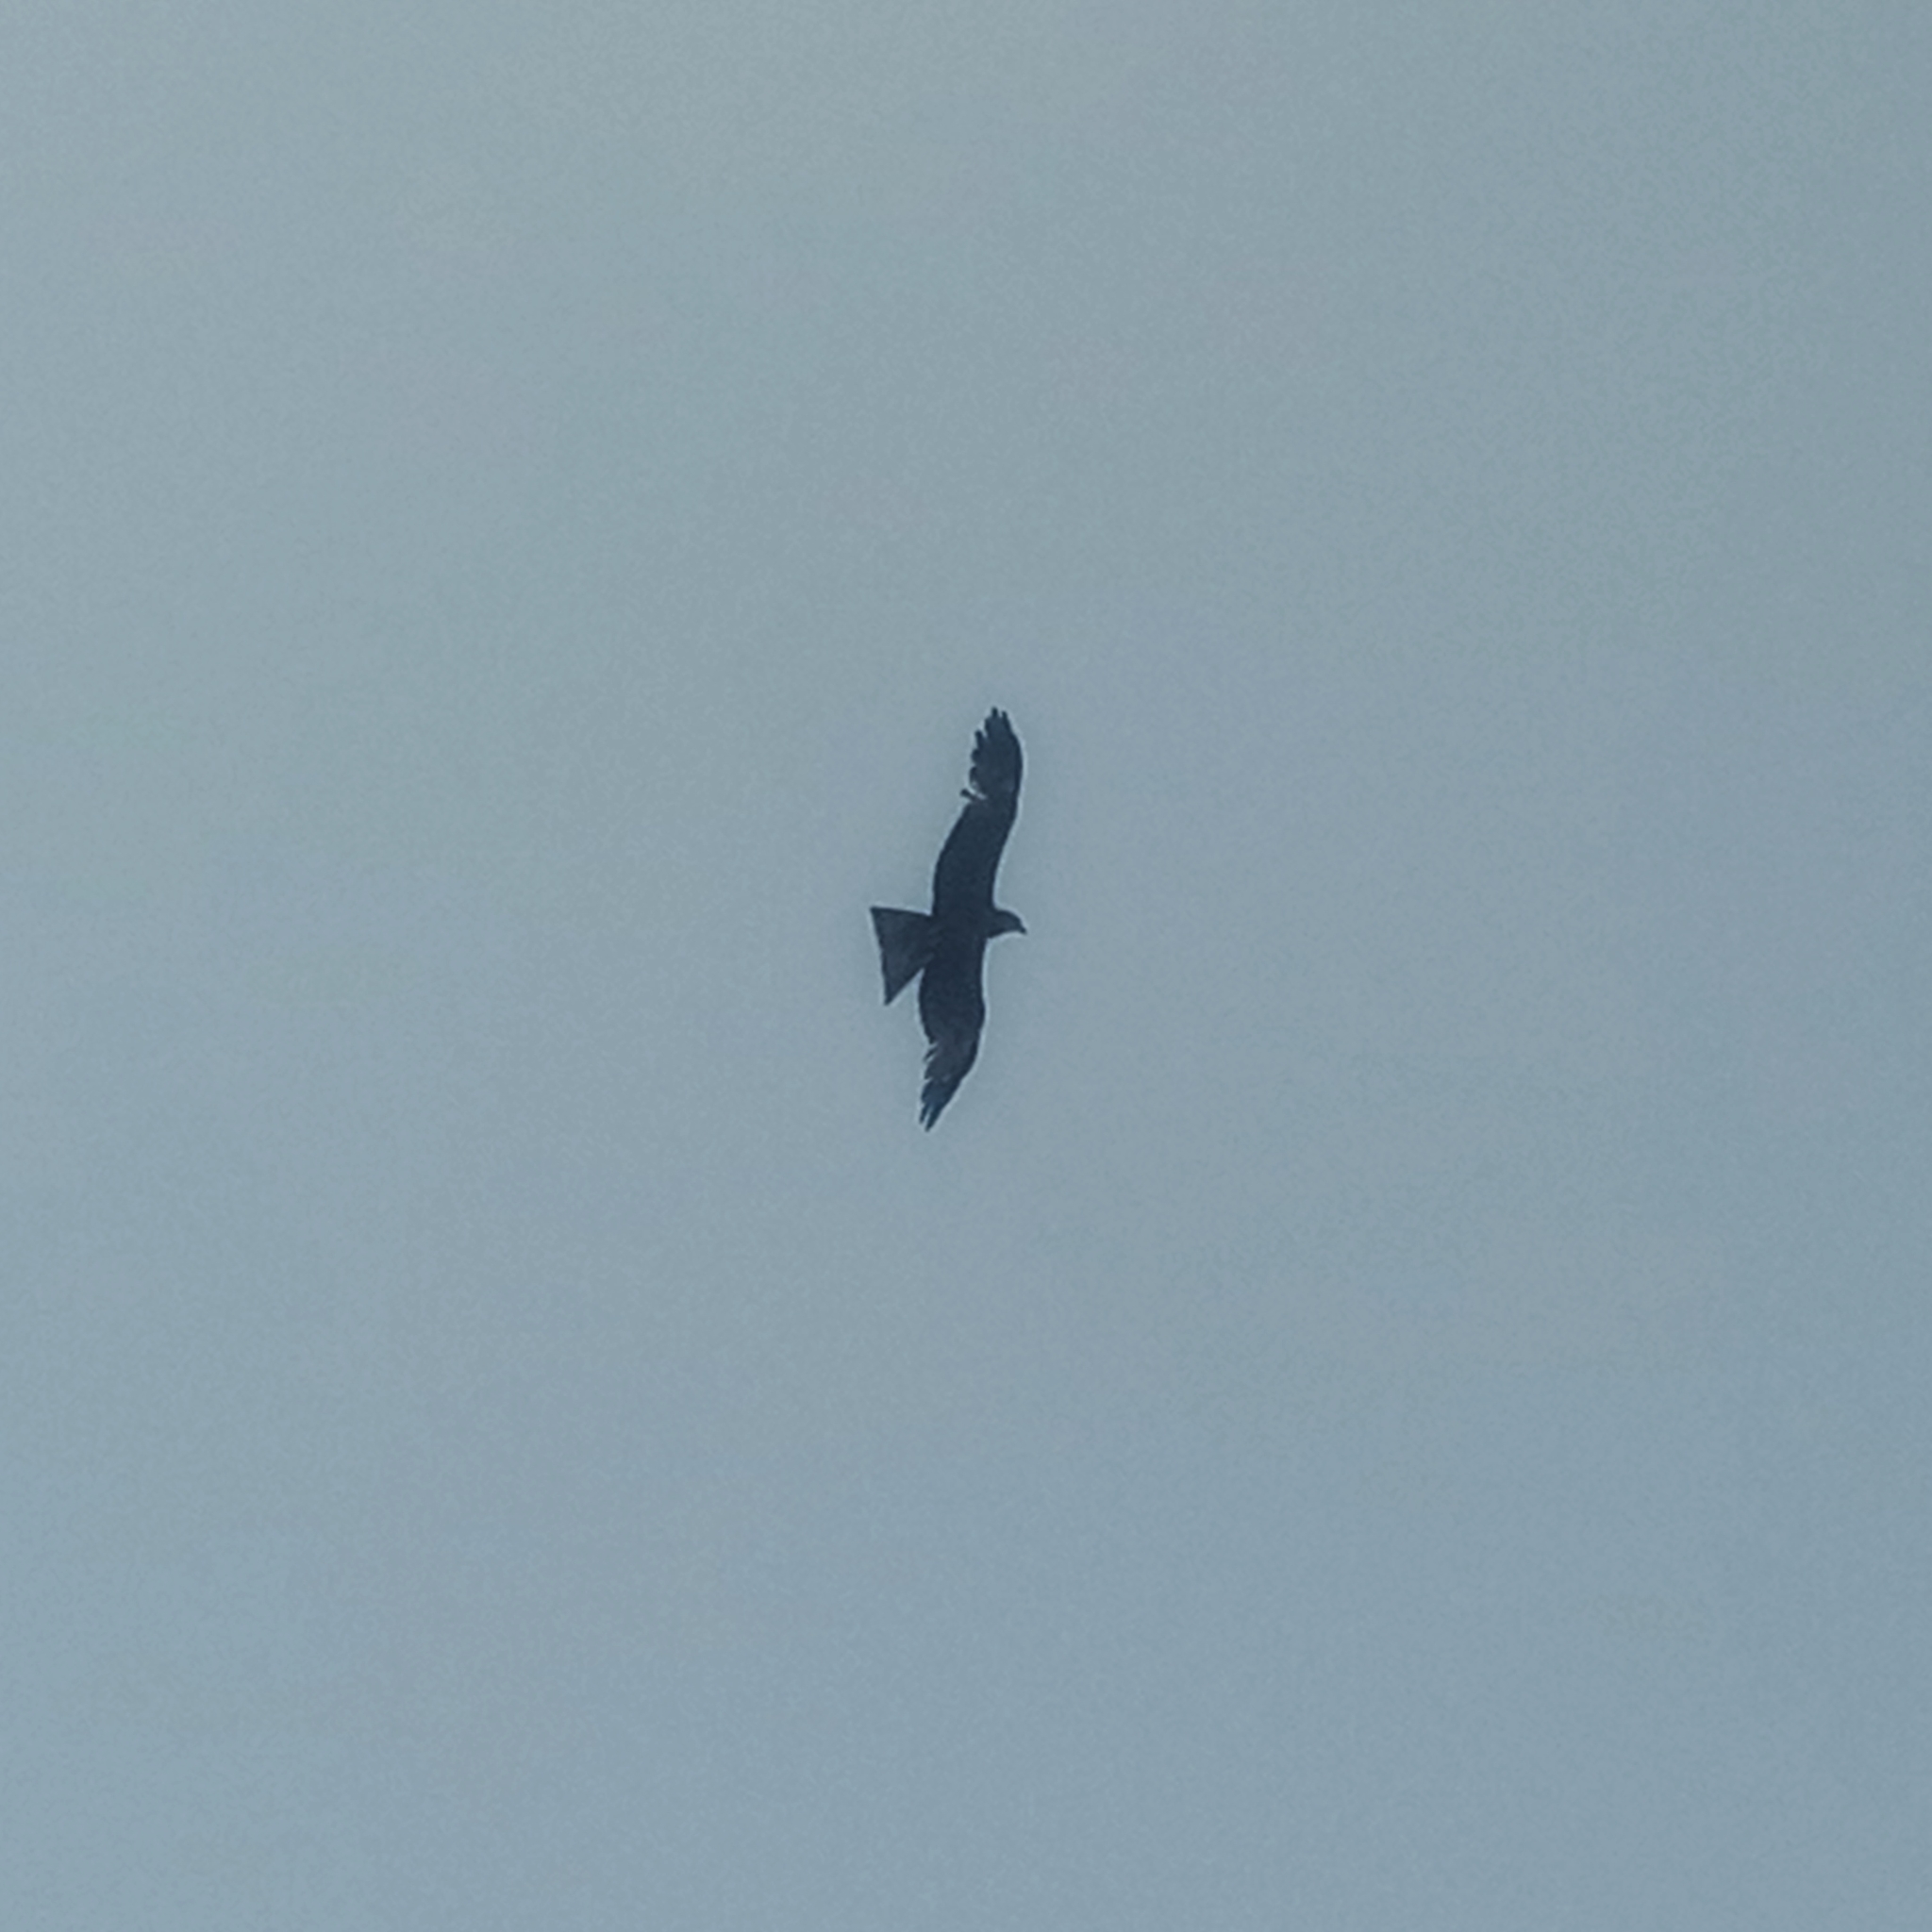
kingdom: Animalia
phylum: Chordata
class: Aves
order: Accipitriformes
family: Accipitridae
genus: Milvus
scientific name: Milvus migrans
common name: Black kite
